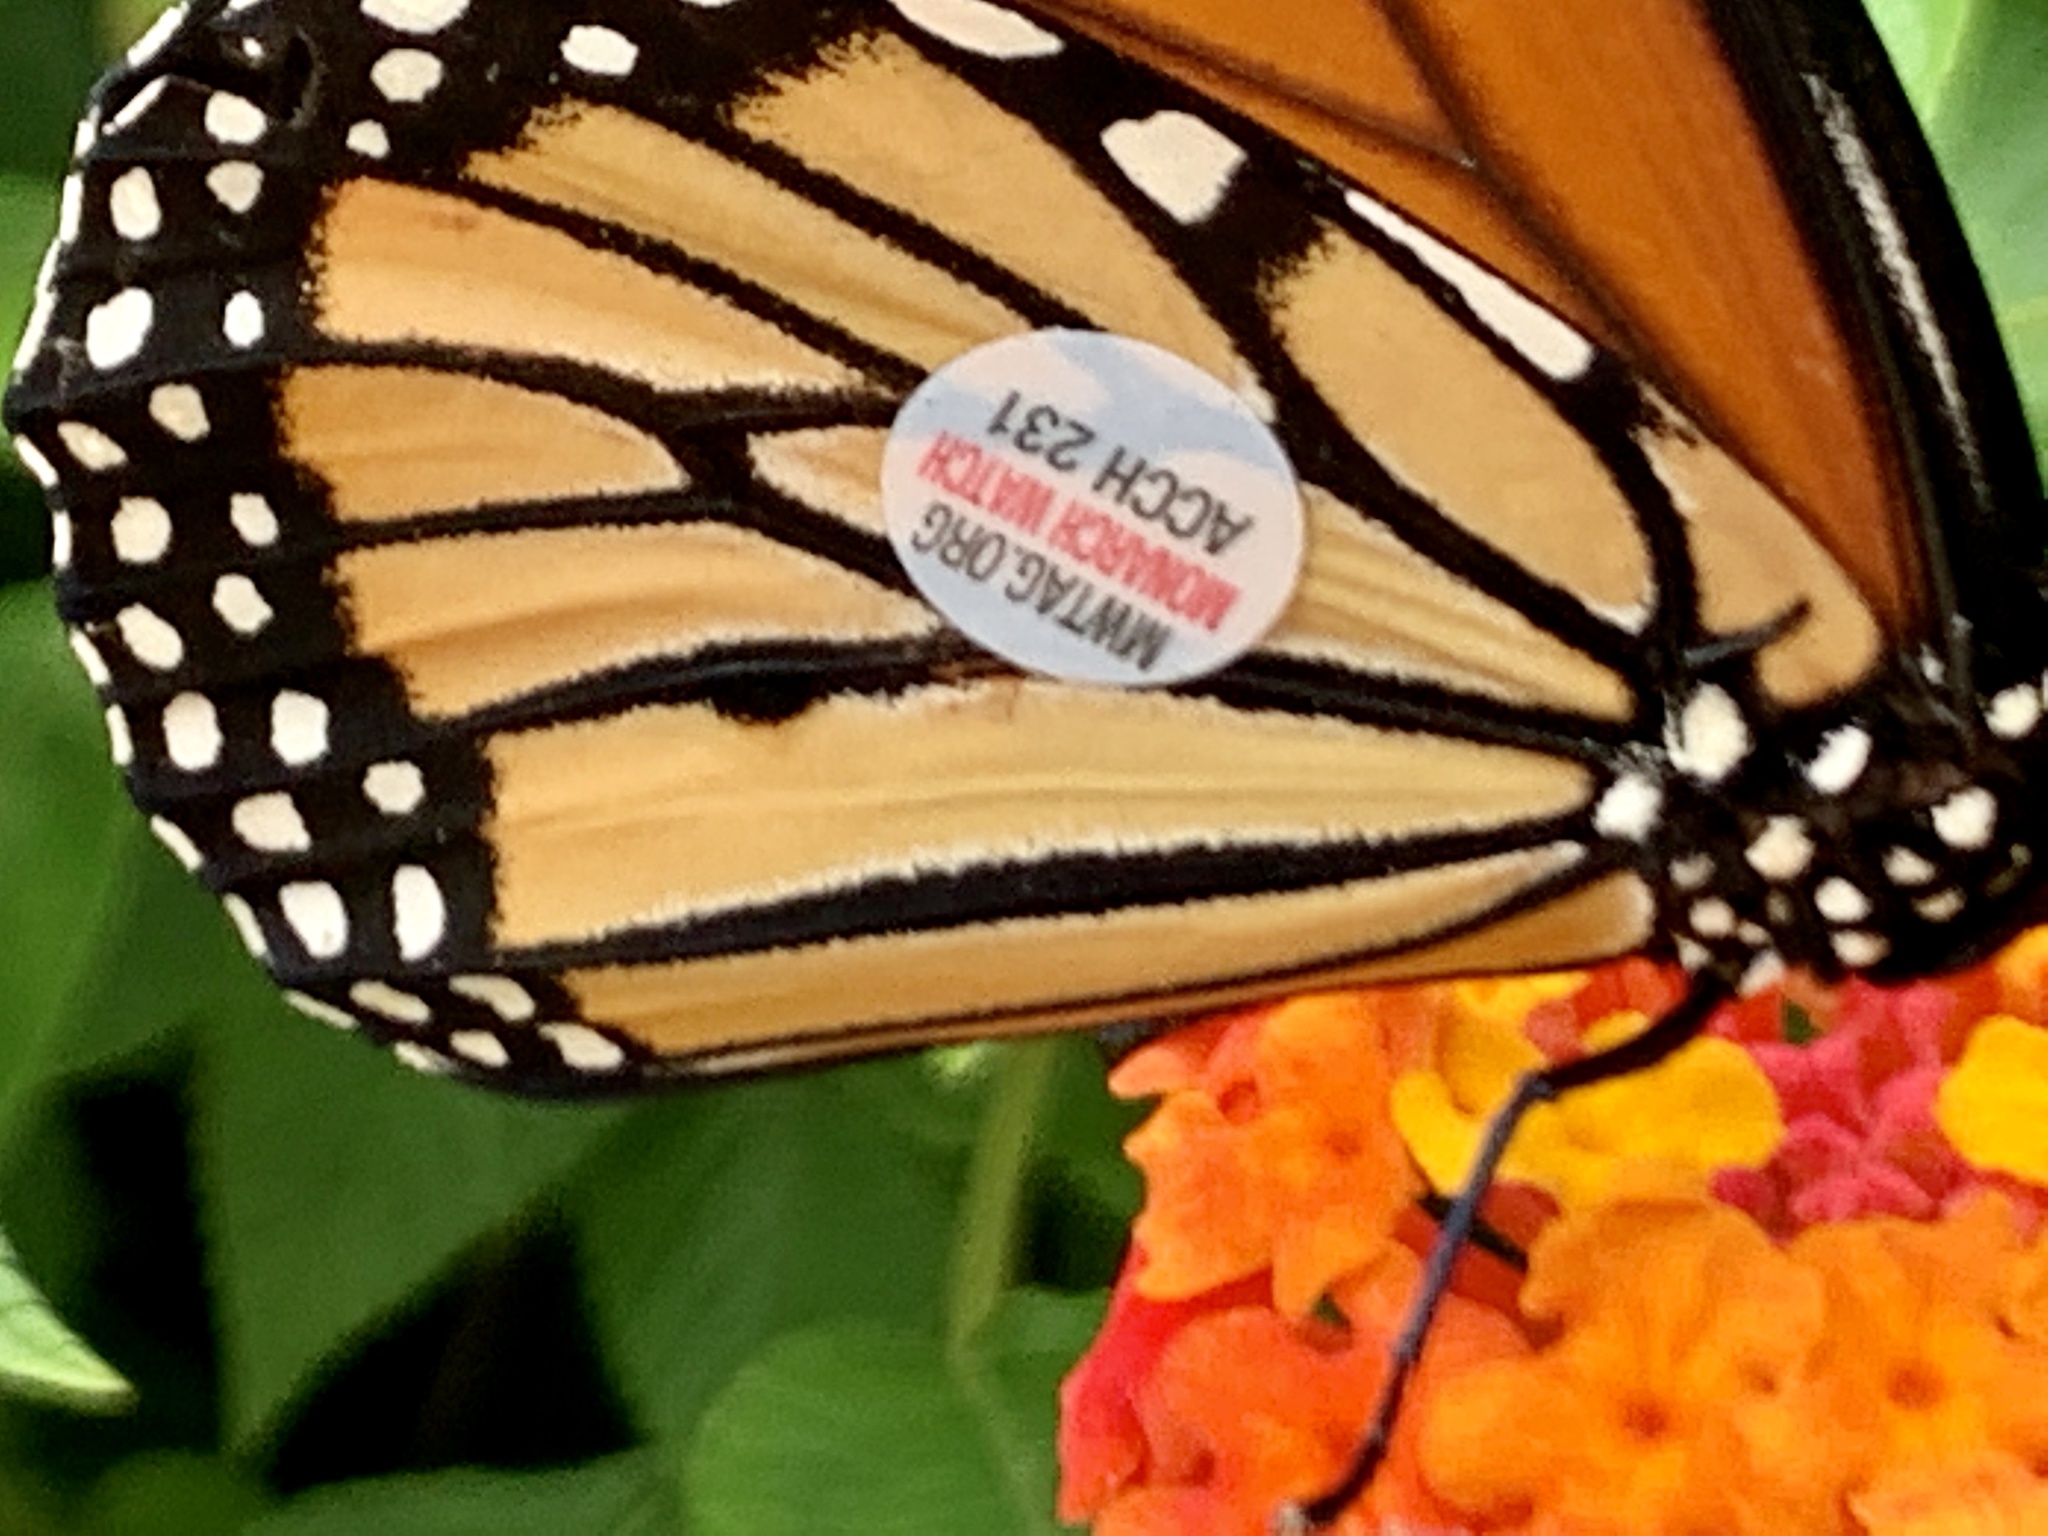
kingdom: Animalia
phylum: Arthropoda
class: Insecta
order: Lepidoptera
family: Nymphalidae
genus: Danaus
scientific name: Danaus plexippus
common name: Monarch
